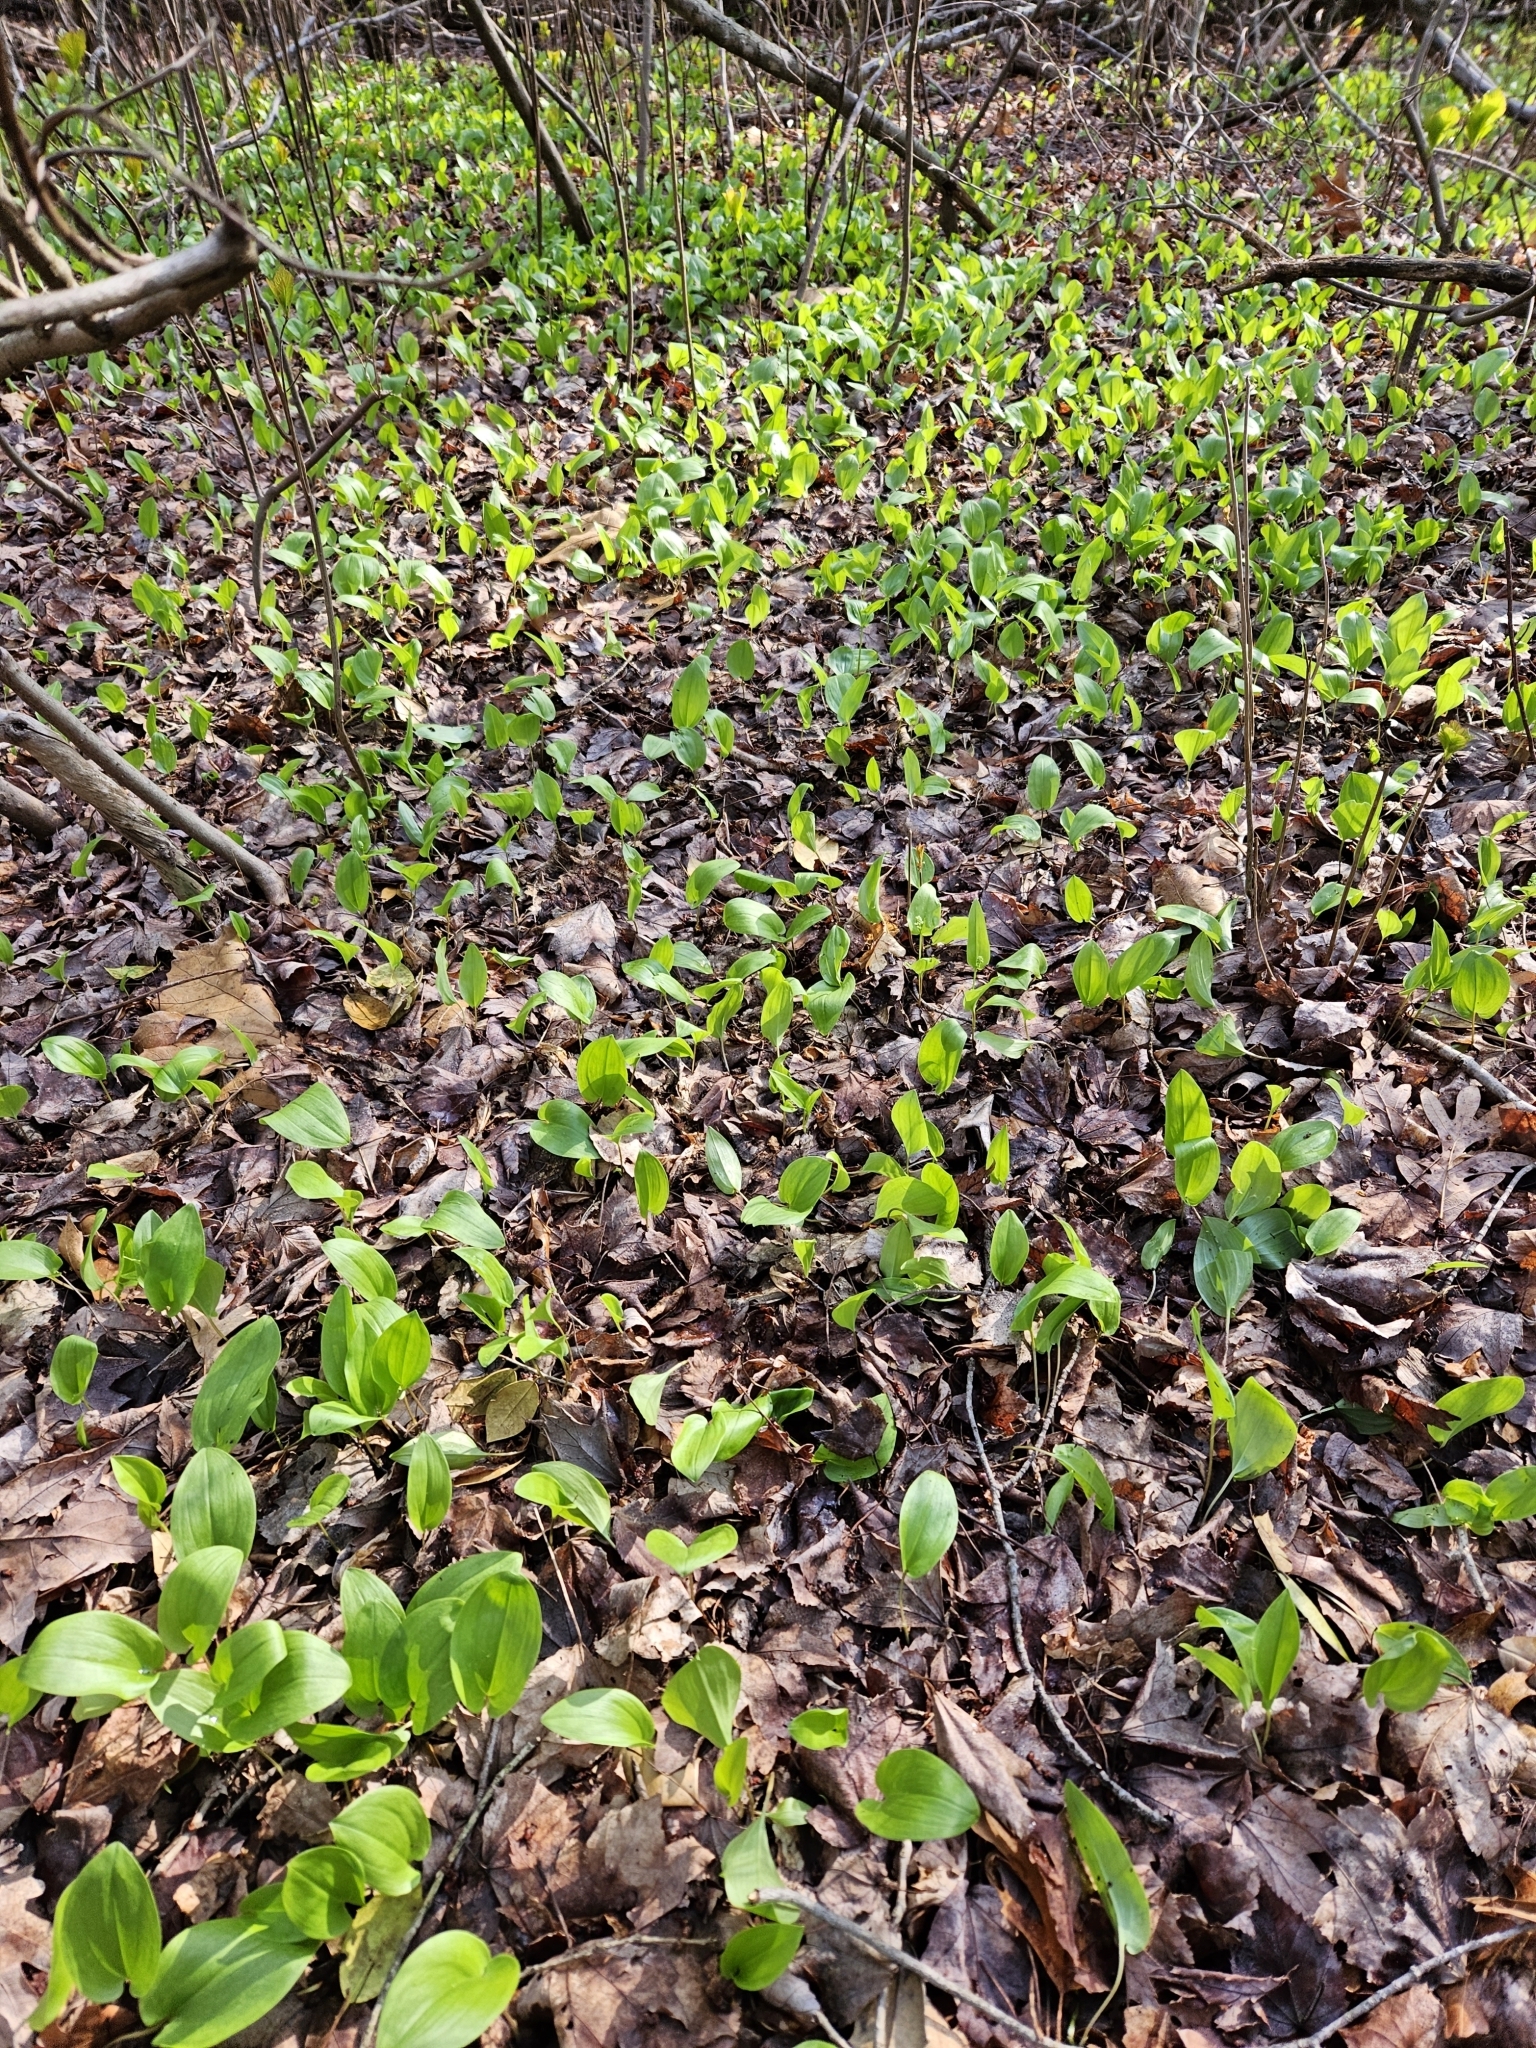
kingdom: Plantae
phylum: Tracheophyta
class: Liliopsida
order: Asparagales
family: Asparagaceae
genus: Maianthemum
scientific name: Maianthemum canadense
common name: False lily-of-the-valley
